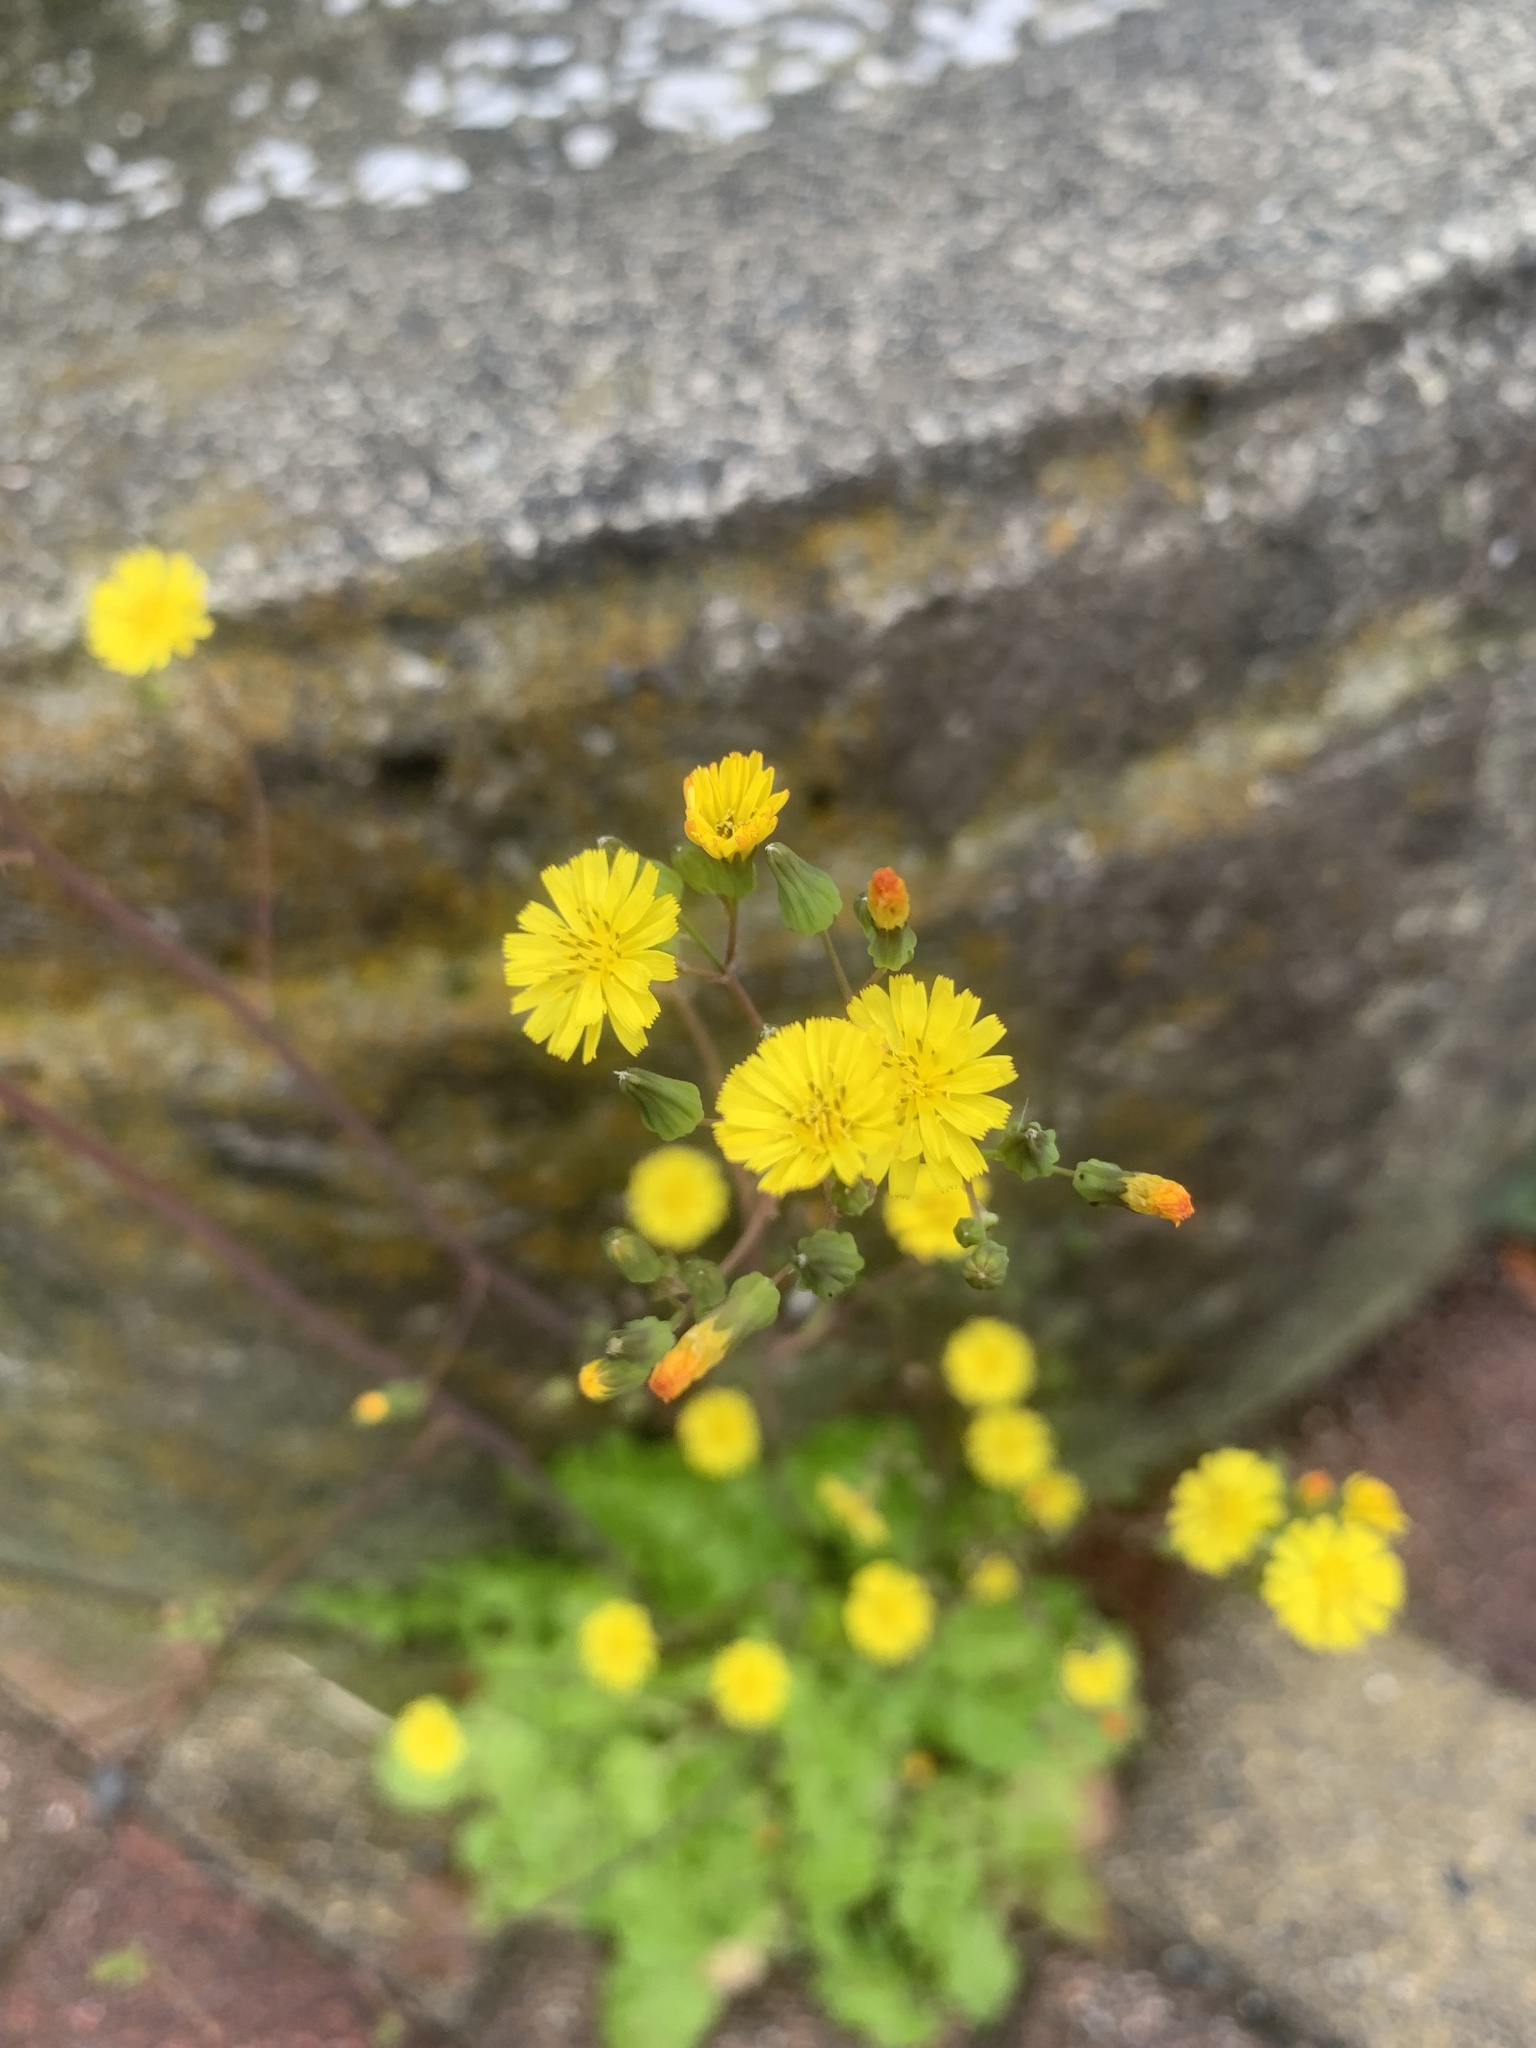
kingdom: Plantae
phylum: Tracheophyta
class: Magnoliopsida
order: Asterales
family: Asteraceae
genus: Youngia
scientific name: Youngia japonica
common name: Oriental false hawksbeard
